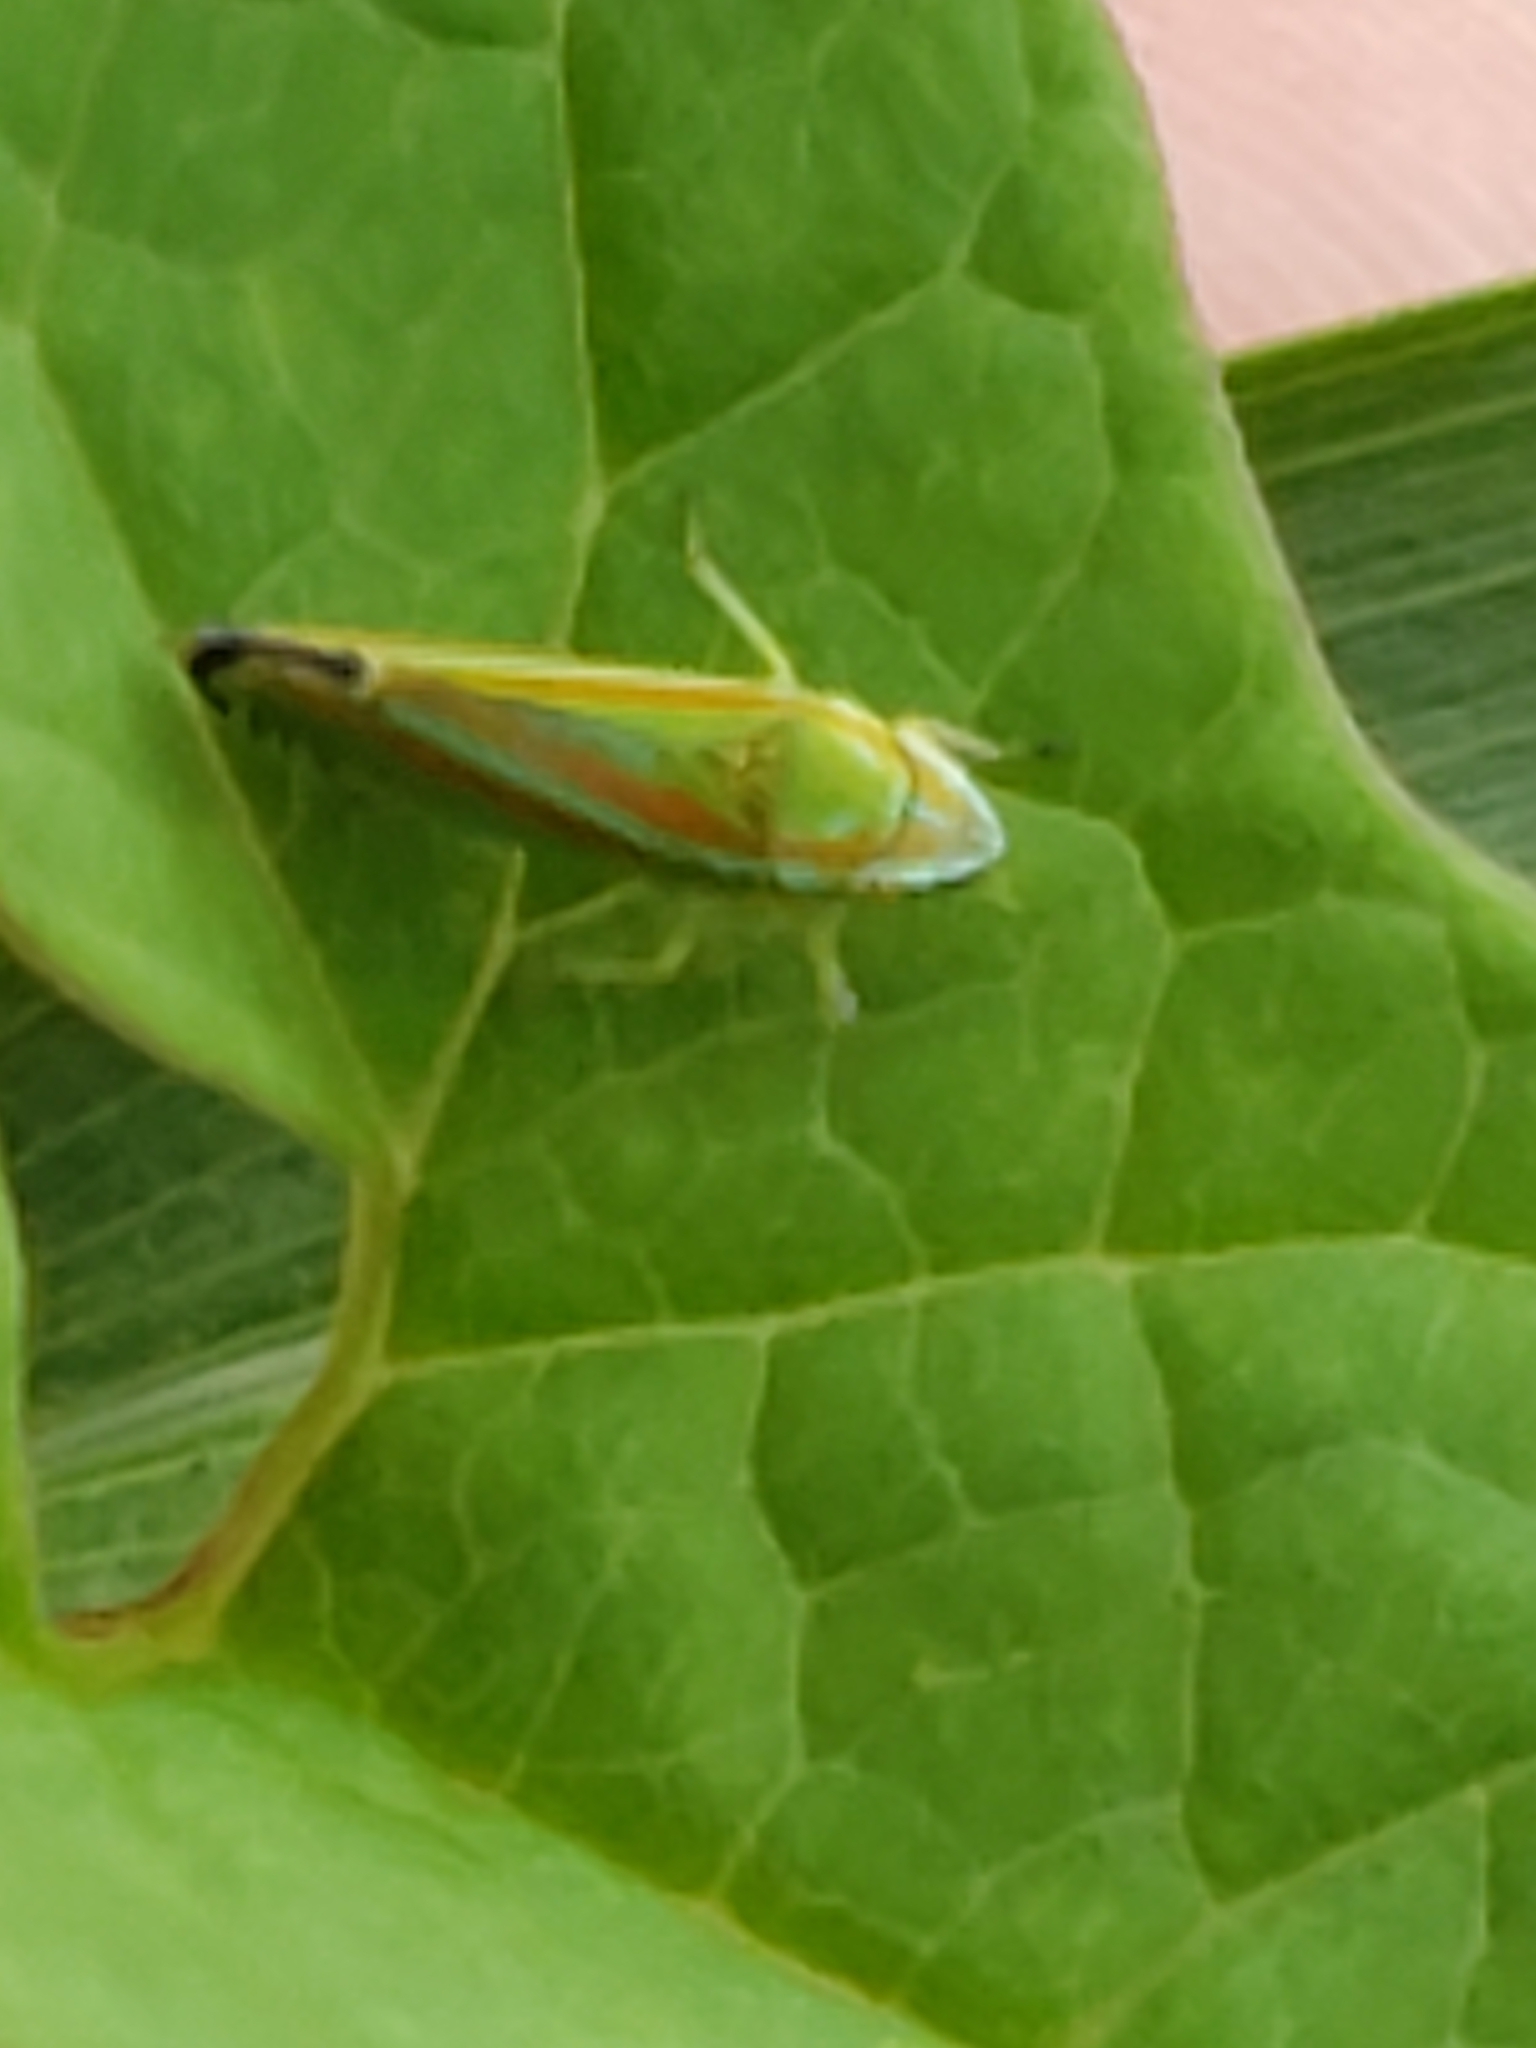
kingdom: Animalia
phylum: Arthropoda
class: Insecta
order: Hemiptera
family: Cicadellidae
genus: Graphocephala
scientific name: Graphocephala versuta
